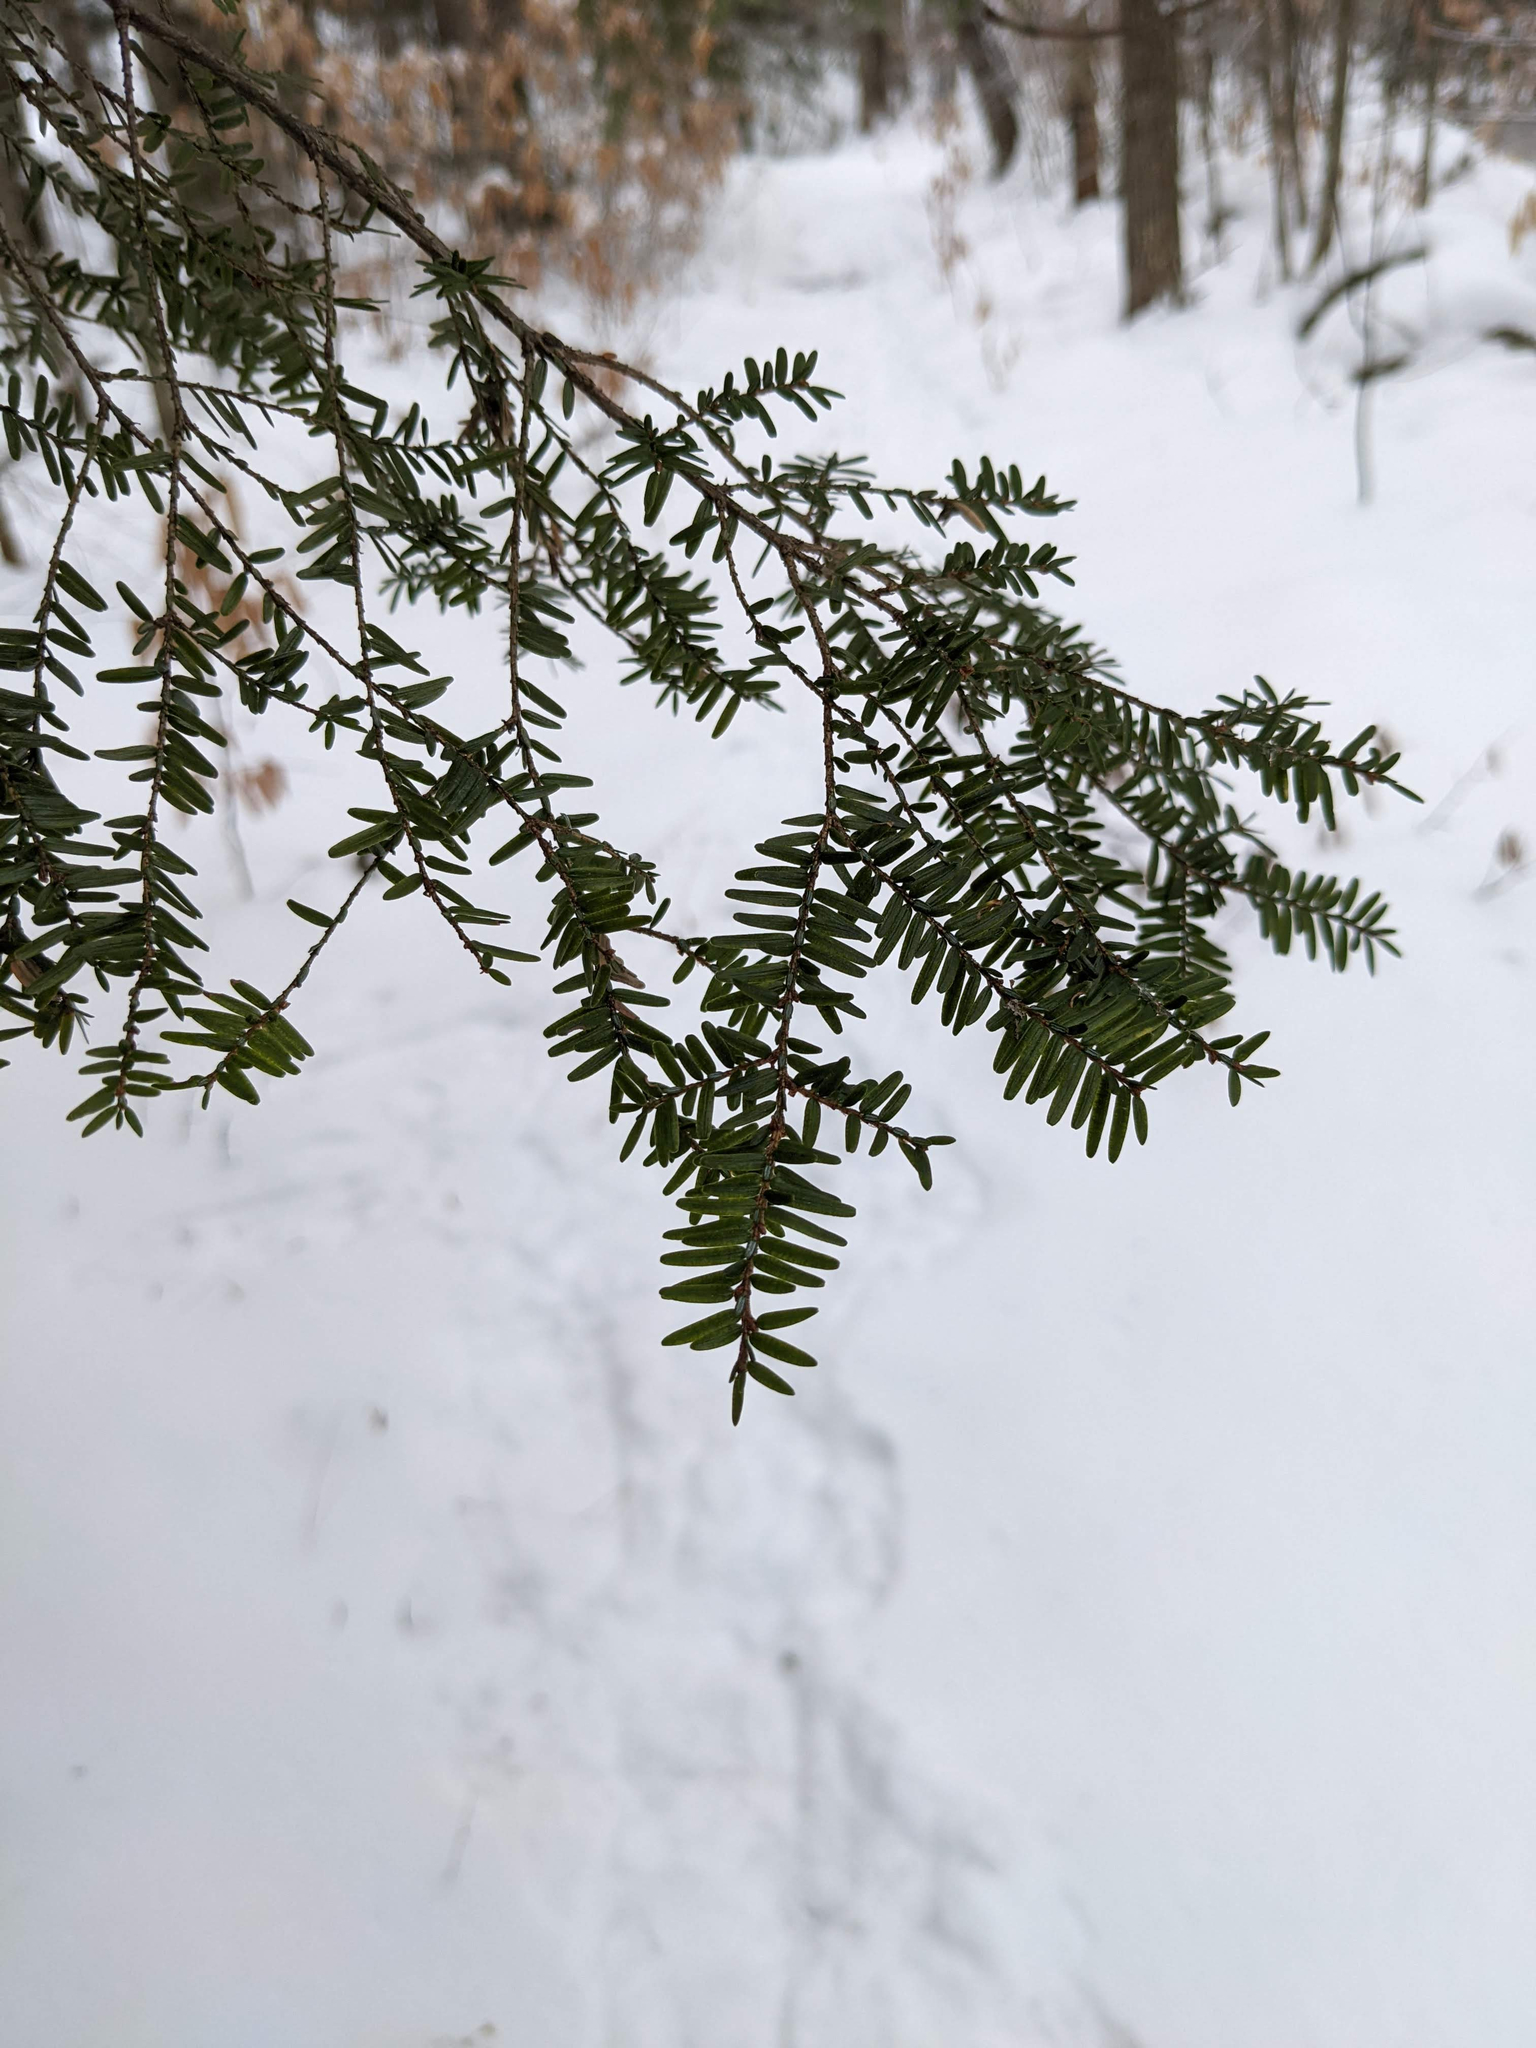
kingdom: Plantae
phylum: Tracheophyta
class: Pinopsida
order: Pinales
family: Pinaceae
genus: Tsuga
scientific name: Tsuga canadensis
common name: Eastern hemlock
